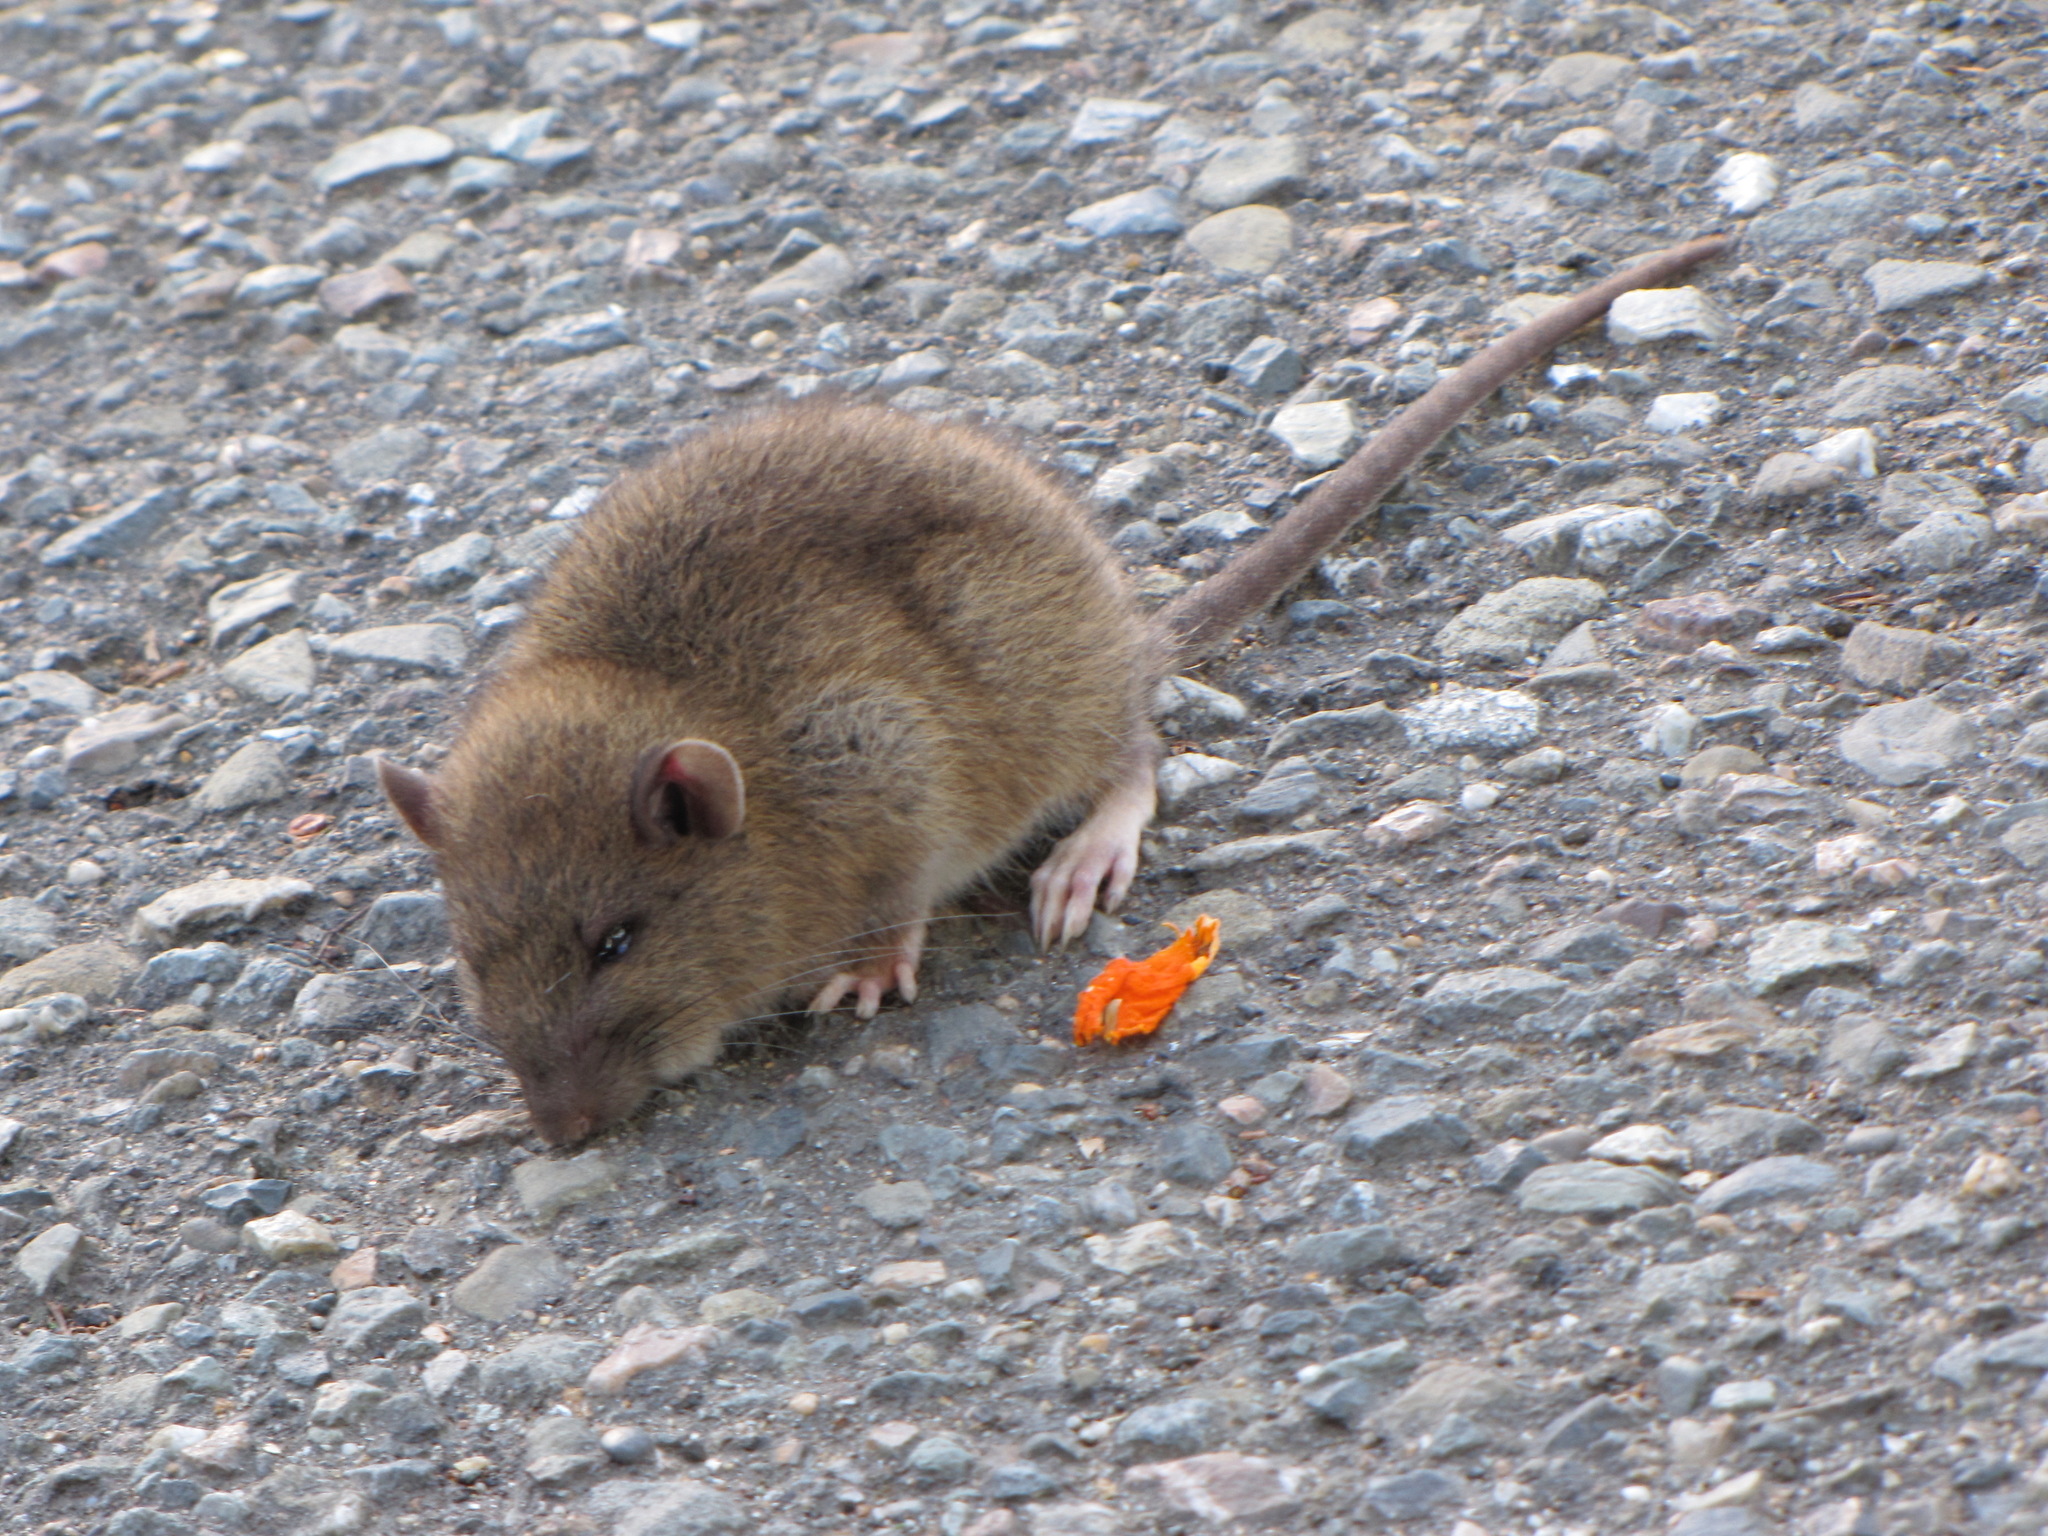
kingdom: Animalia
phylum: Chordata
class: Mammalia
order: Rodentia
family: Muridae
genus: Rattus
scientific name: Rattus norvegicus
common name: Brown rat
